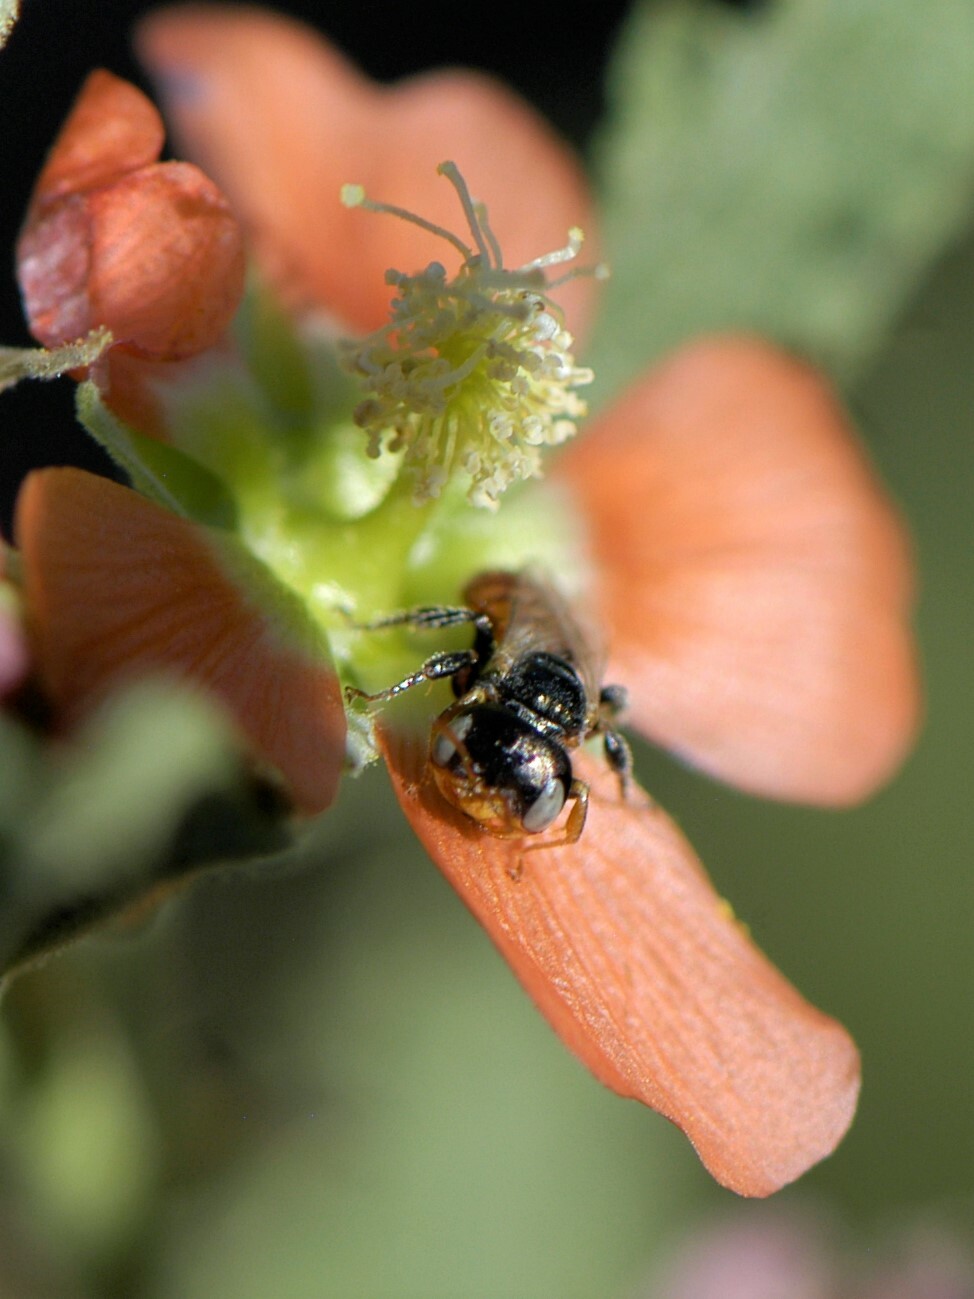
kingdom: Animalia
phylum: Arthropoda
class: Insecta
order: Hymenoptera
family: Andrenidae
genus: Macrotera
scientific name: Macrotera latior
